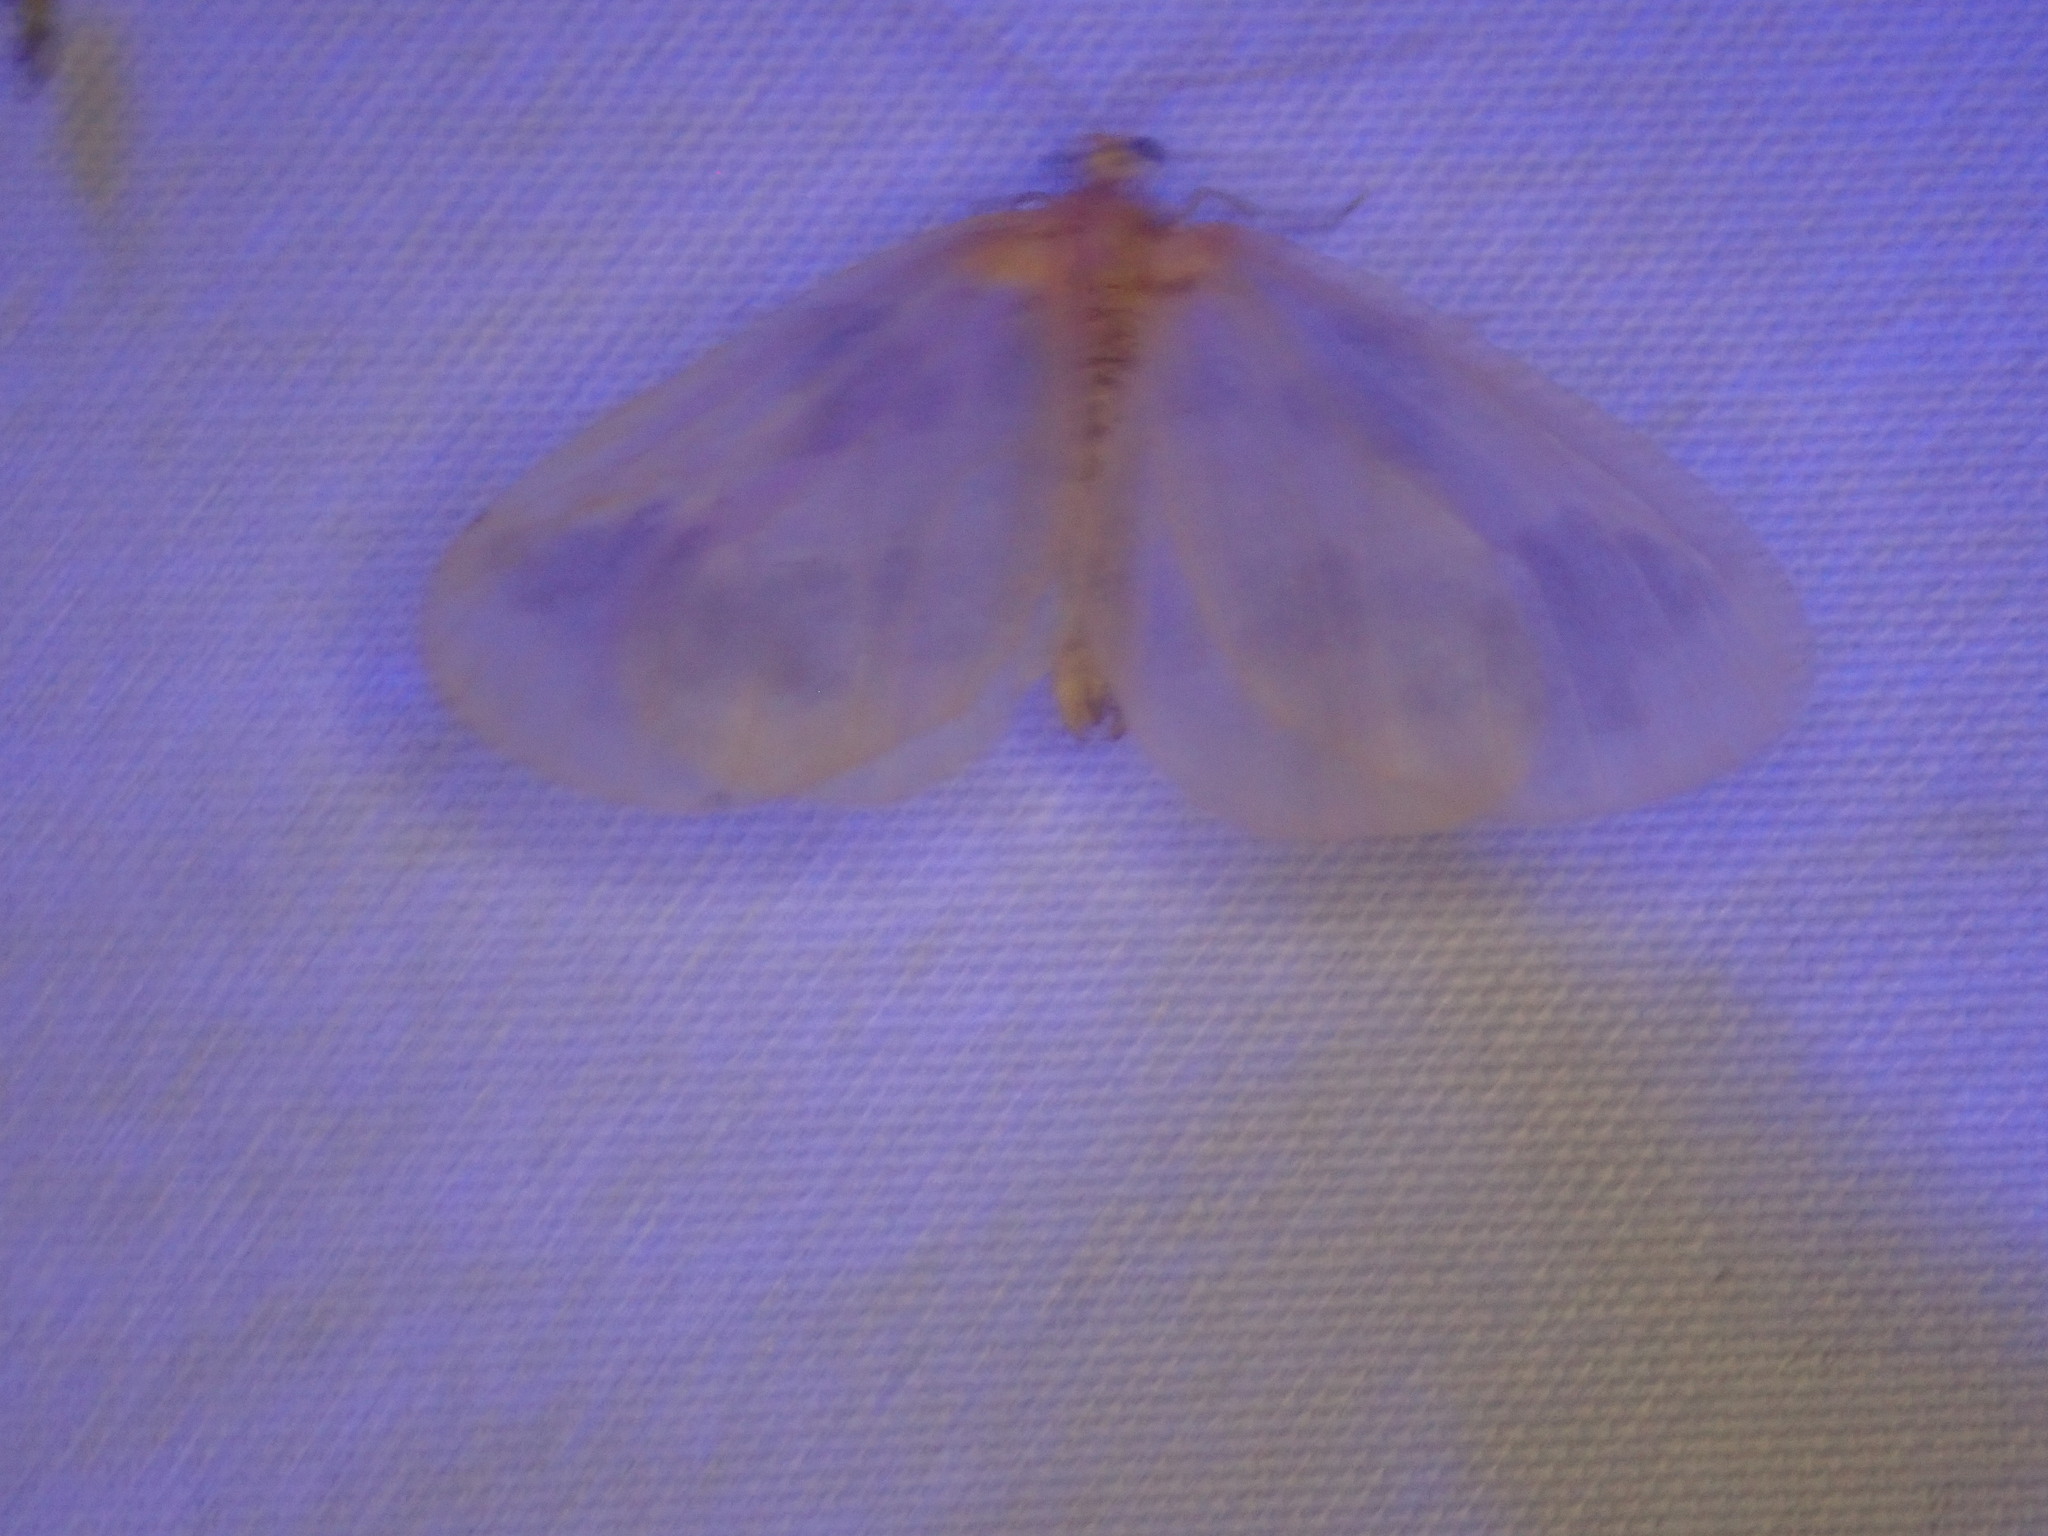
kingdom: Animalia
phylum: Arthropoda
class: Insecta
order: Lepidoptera
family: Geometridae
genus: Eubaphe
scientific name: Eubaphe mendica
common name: Beggar
